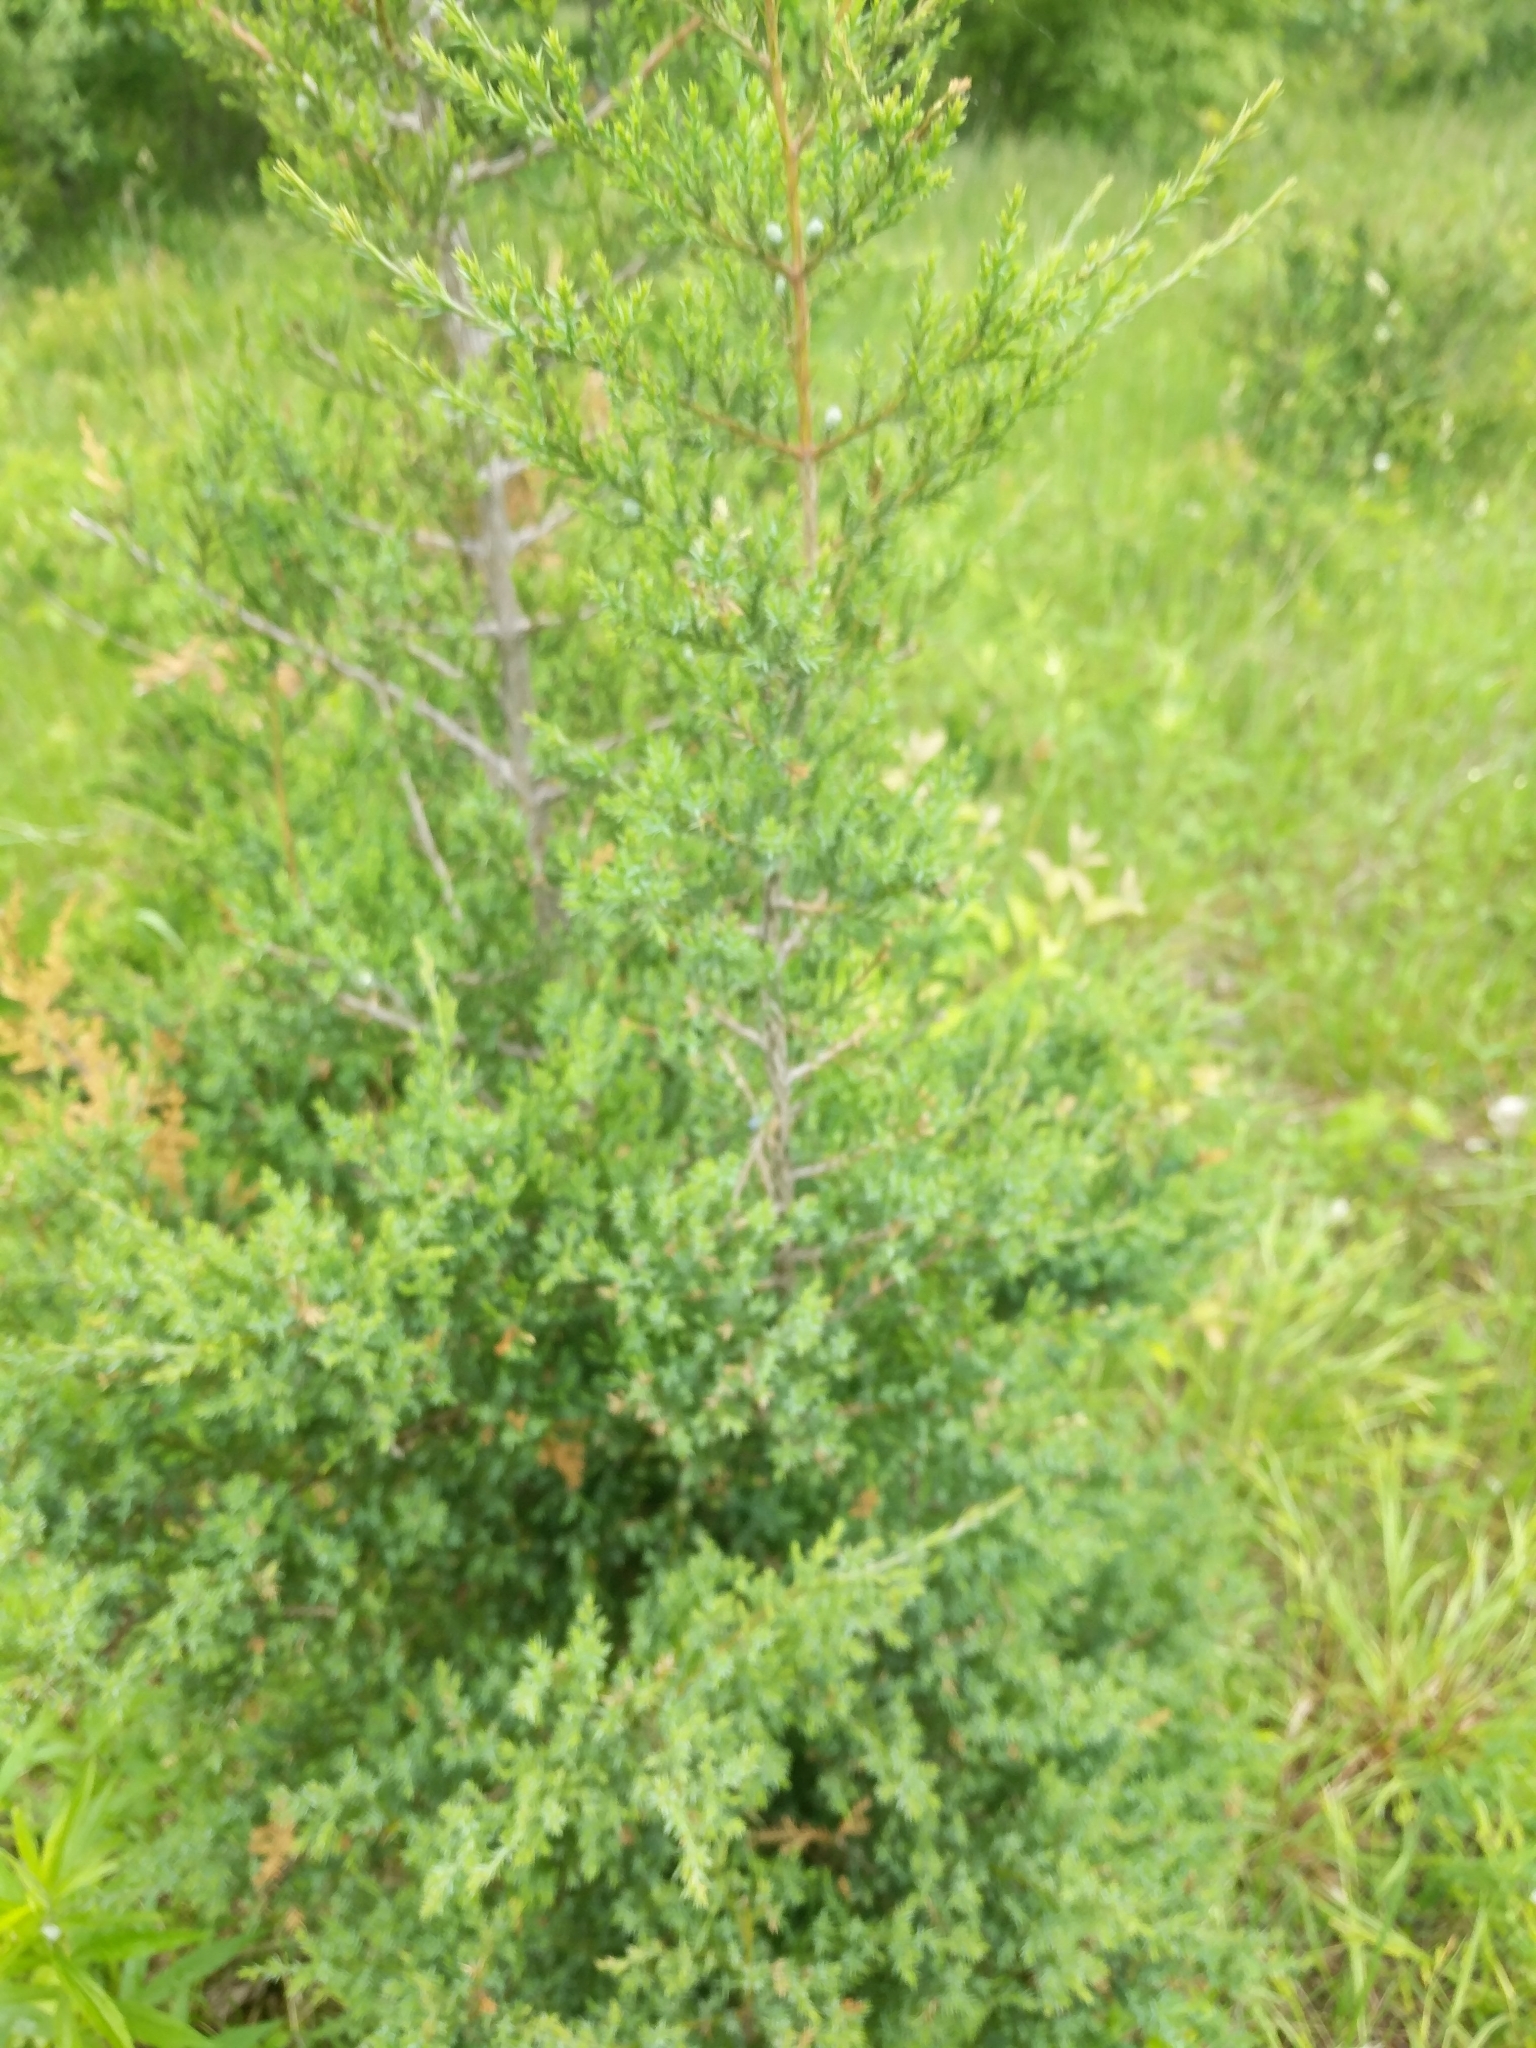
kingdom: Plantae
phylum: Tracheophyta
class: Pinopsida
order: Pinales
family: Cupressaceae
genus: Juniperus
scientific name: Juniperus virginiana
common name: Red juniper
